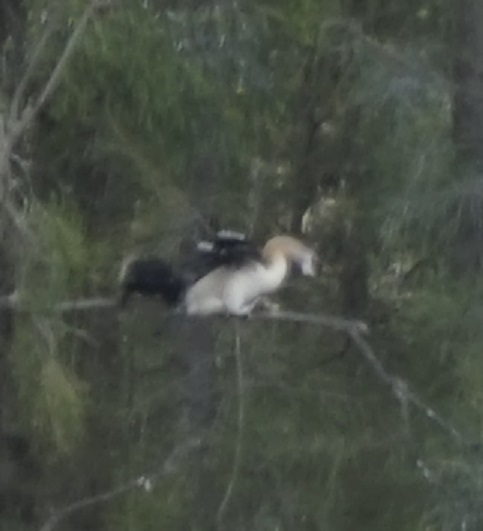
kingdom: Animalia
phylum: Chordata
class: Aves
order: Suliformes
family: Anhingidae
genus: Anhinga
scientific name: Anhinga novaehollandiae
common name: Australasian darter
